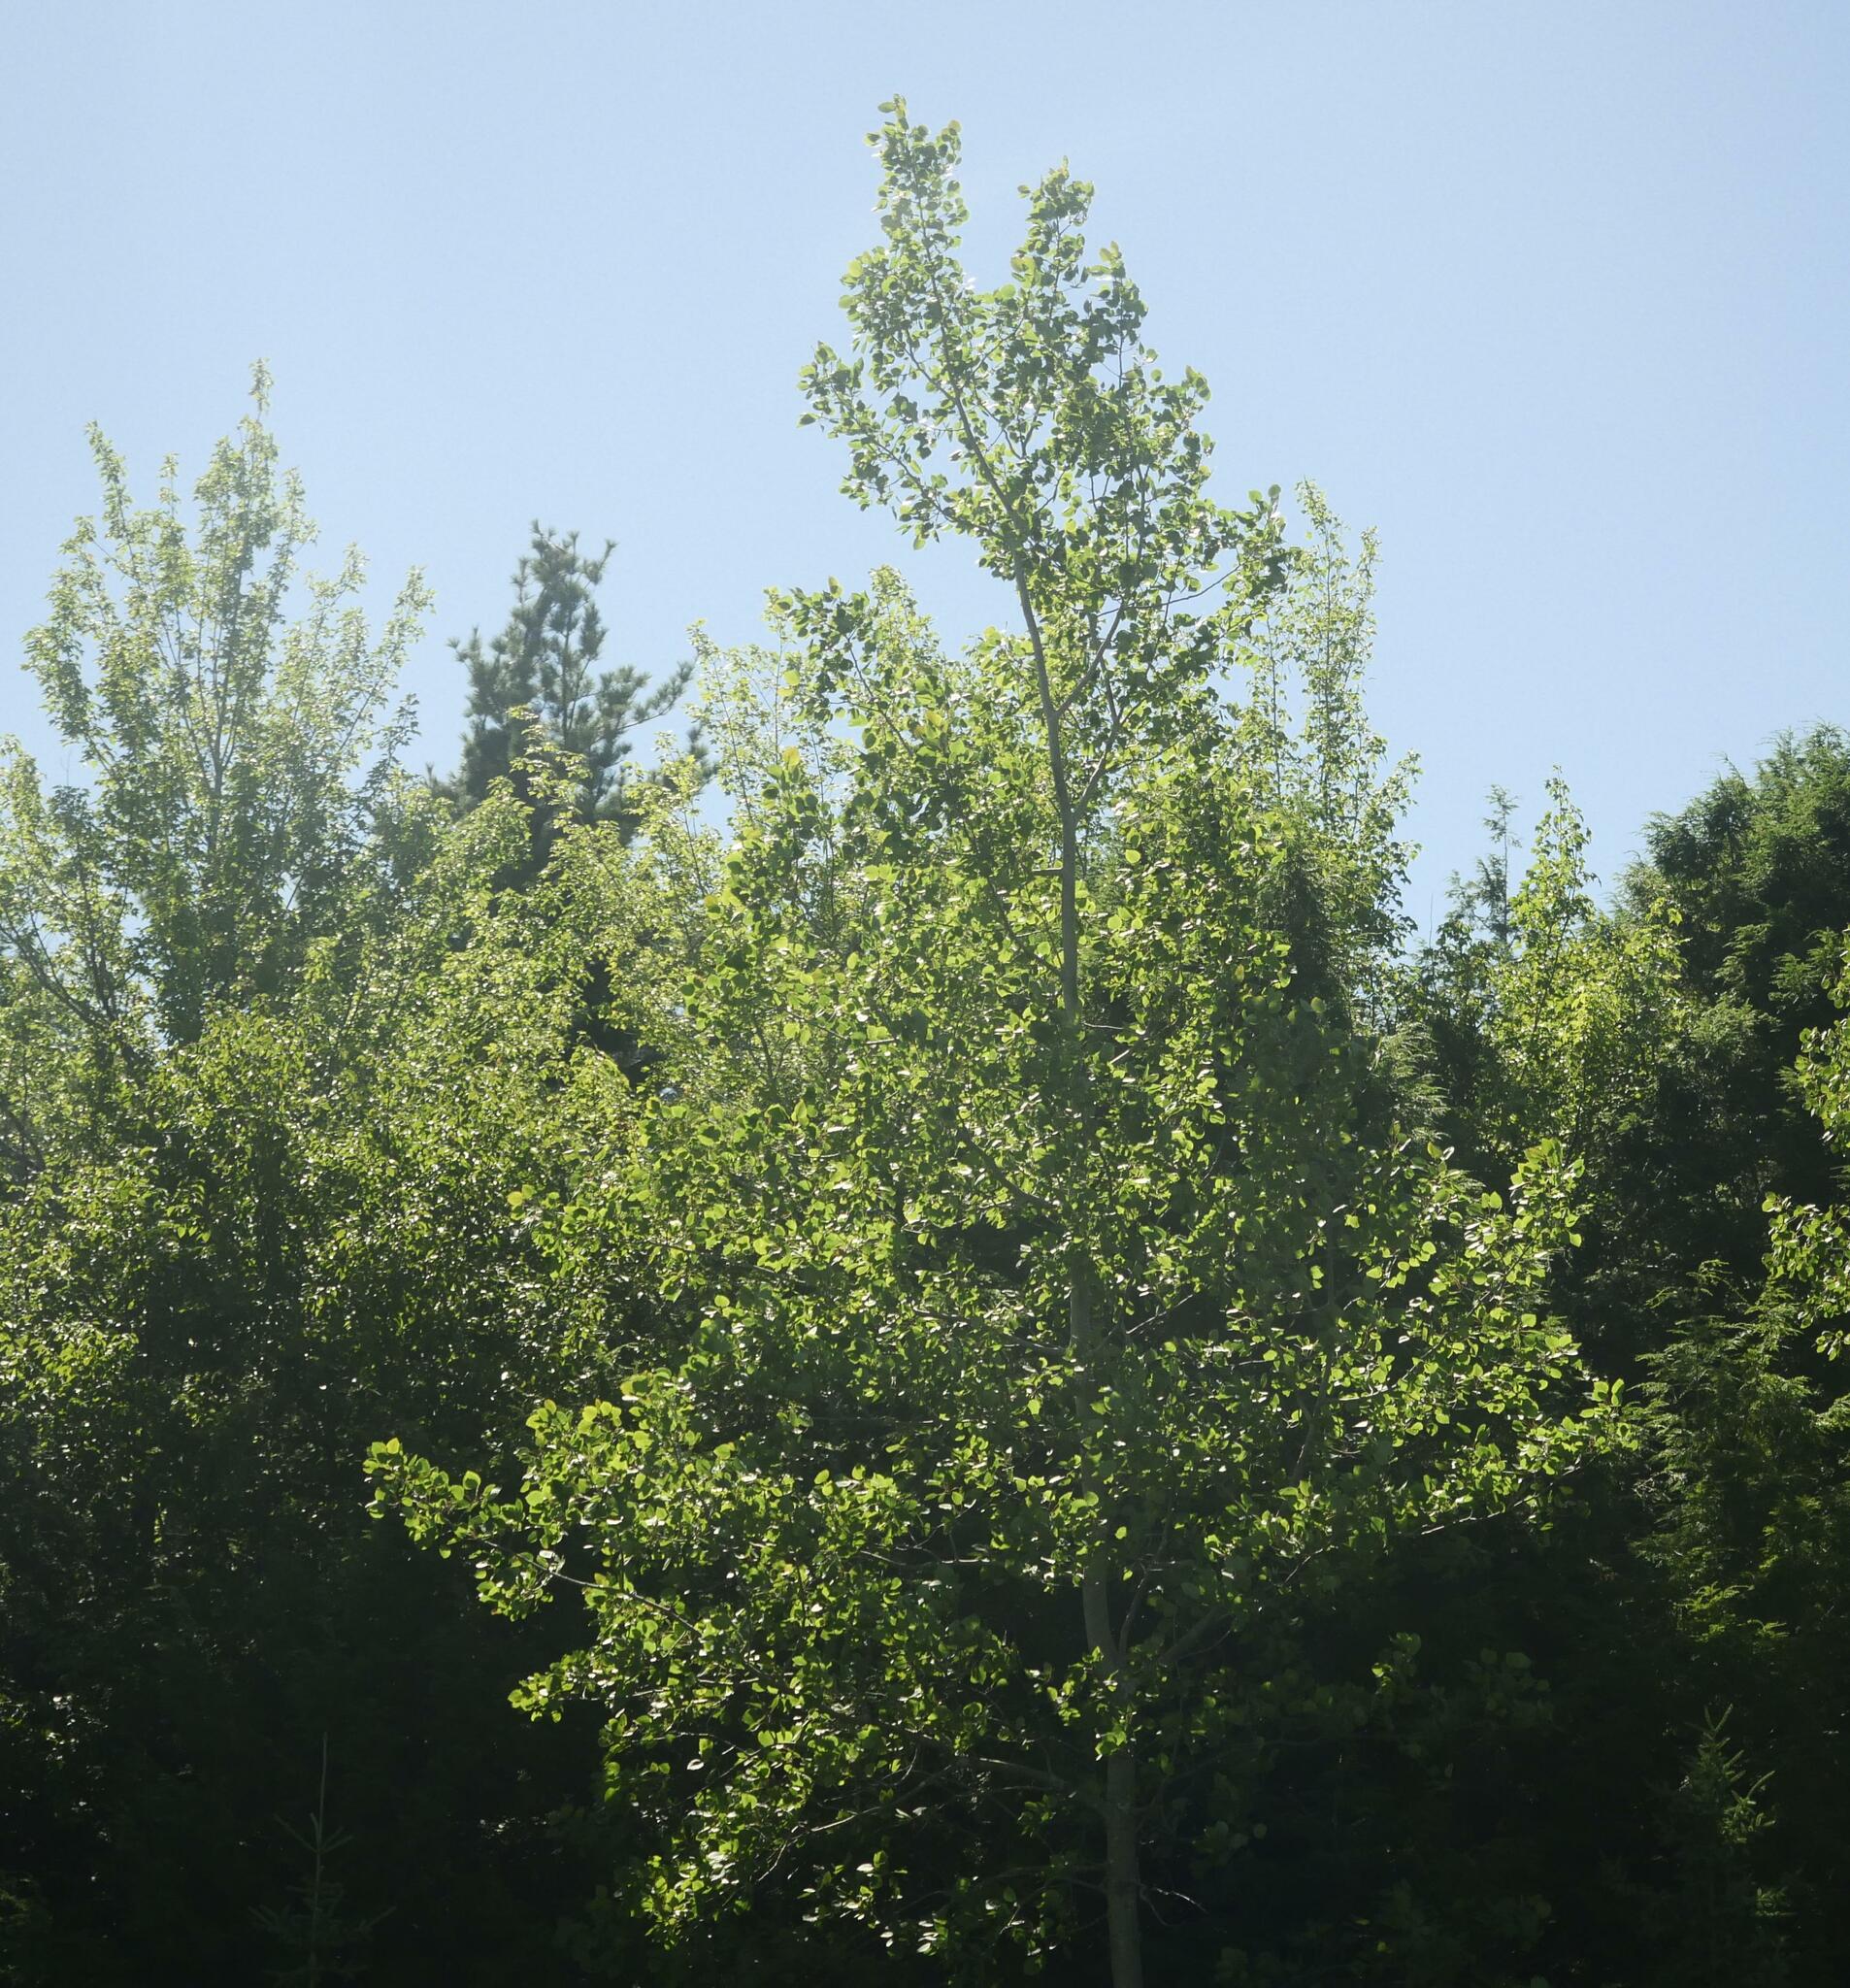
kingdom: Plantae
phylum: Tracheophyta
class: Magnoliopsida
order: Malpighiales
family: Salicaceae
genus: Populus
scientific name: Populus tremuloides
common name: Quaking aspen
